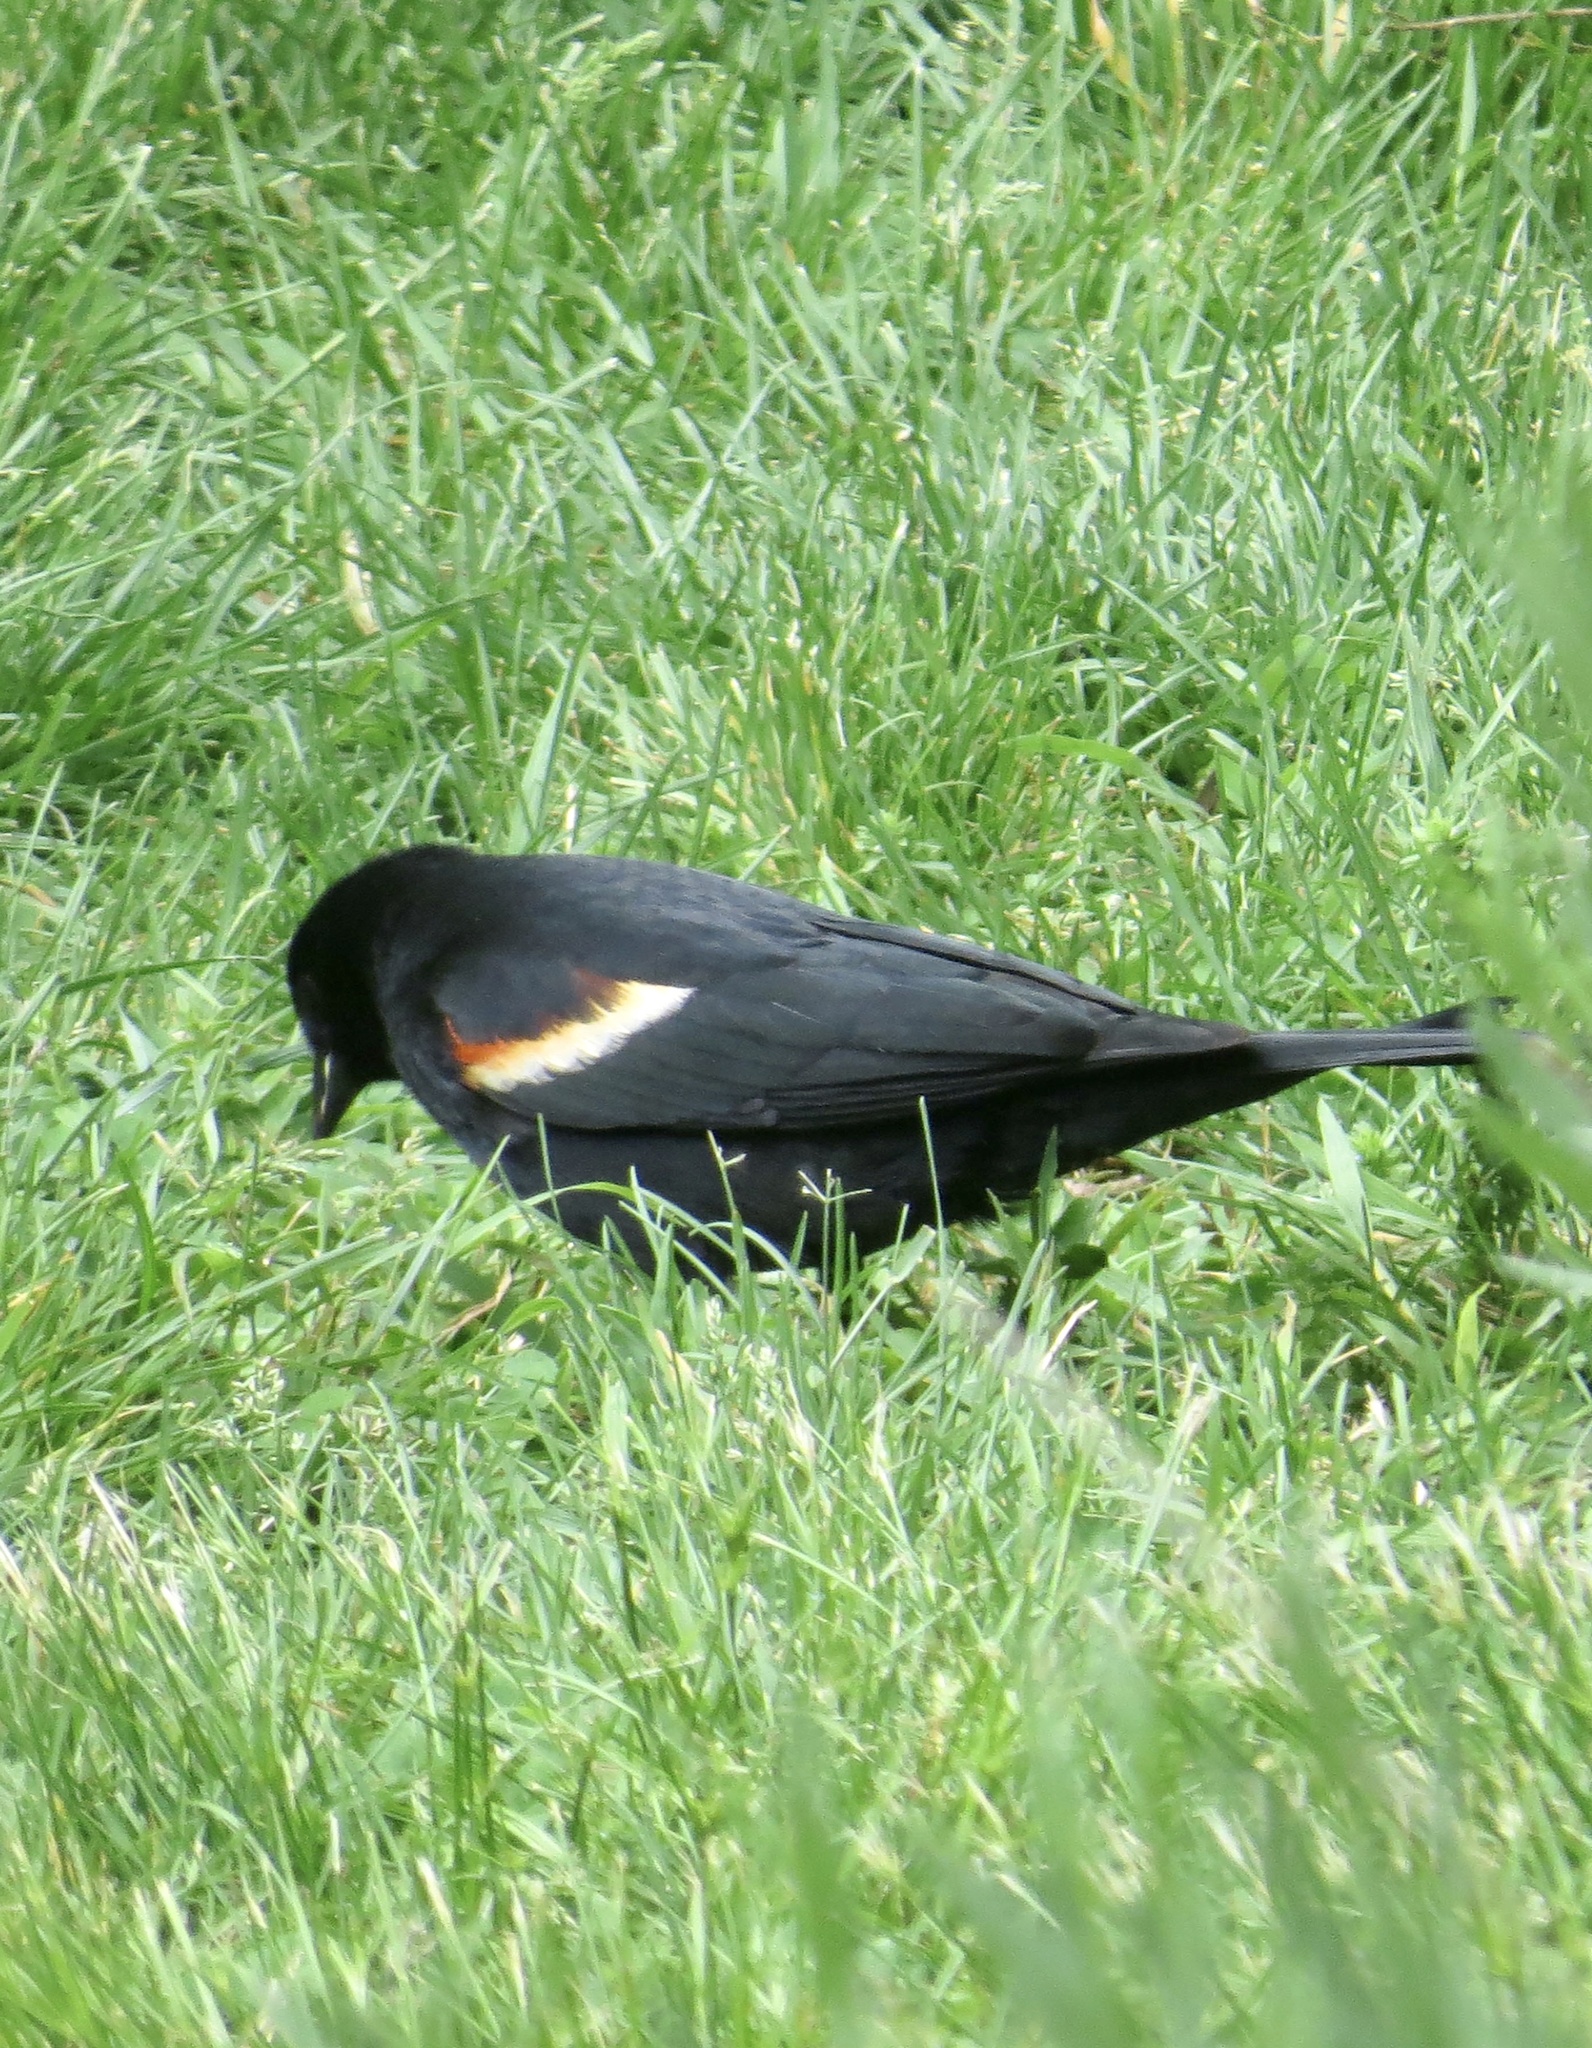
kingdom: Animalia
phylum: Chordata
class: Aves
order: Passeriformes
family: Icteridae
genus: Agelaius
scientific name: Agelaius phoeniceus
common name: Red-winged blackbird
